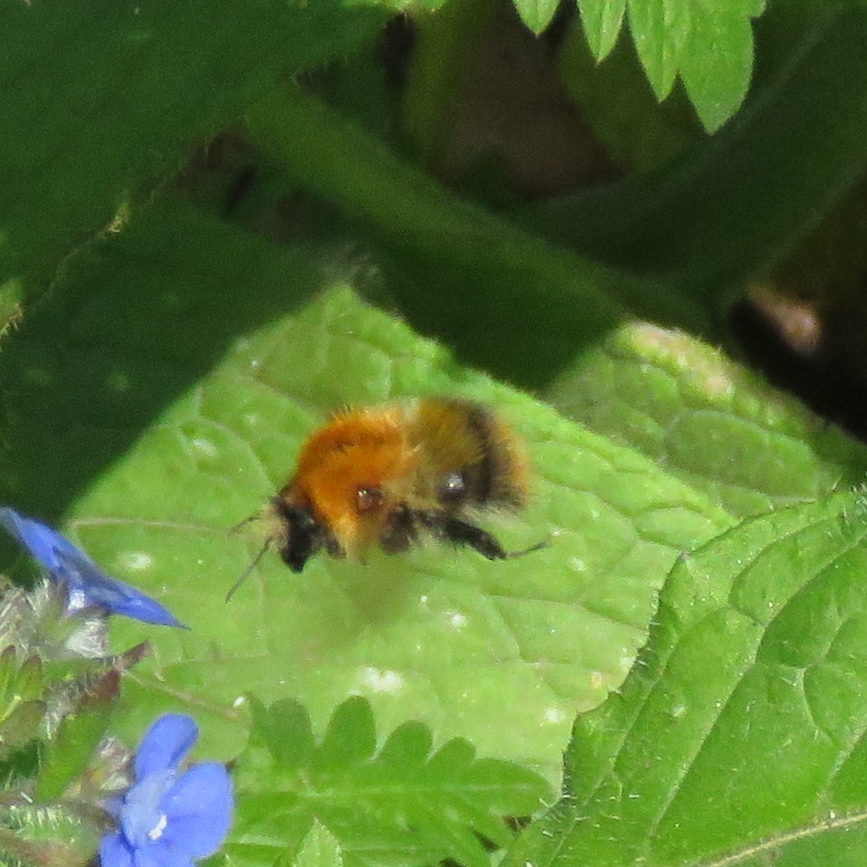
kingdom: Animalia
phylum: Arthropoda
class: Insecta
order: Hymenoptera
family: Apidae
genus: Bombus
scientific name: Bombus pascuorum
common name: Common carder bee
